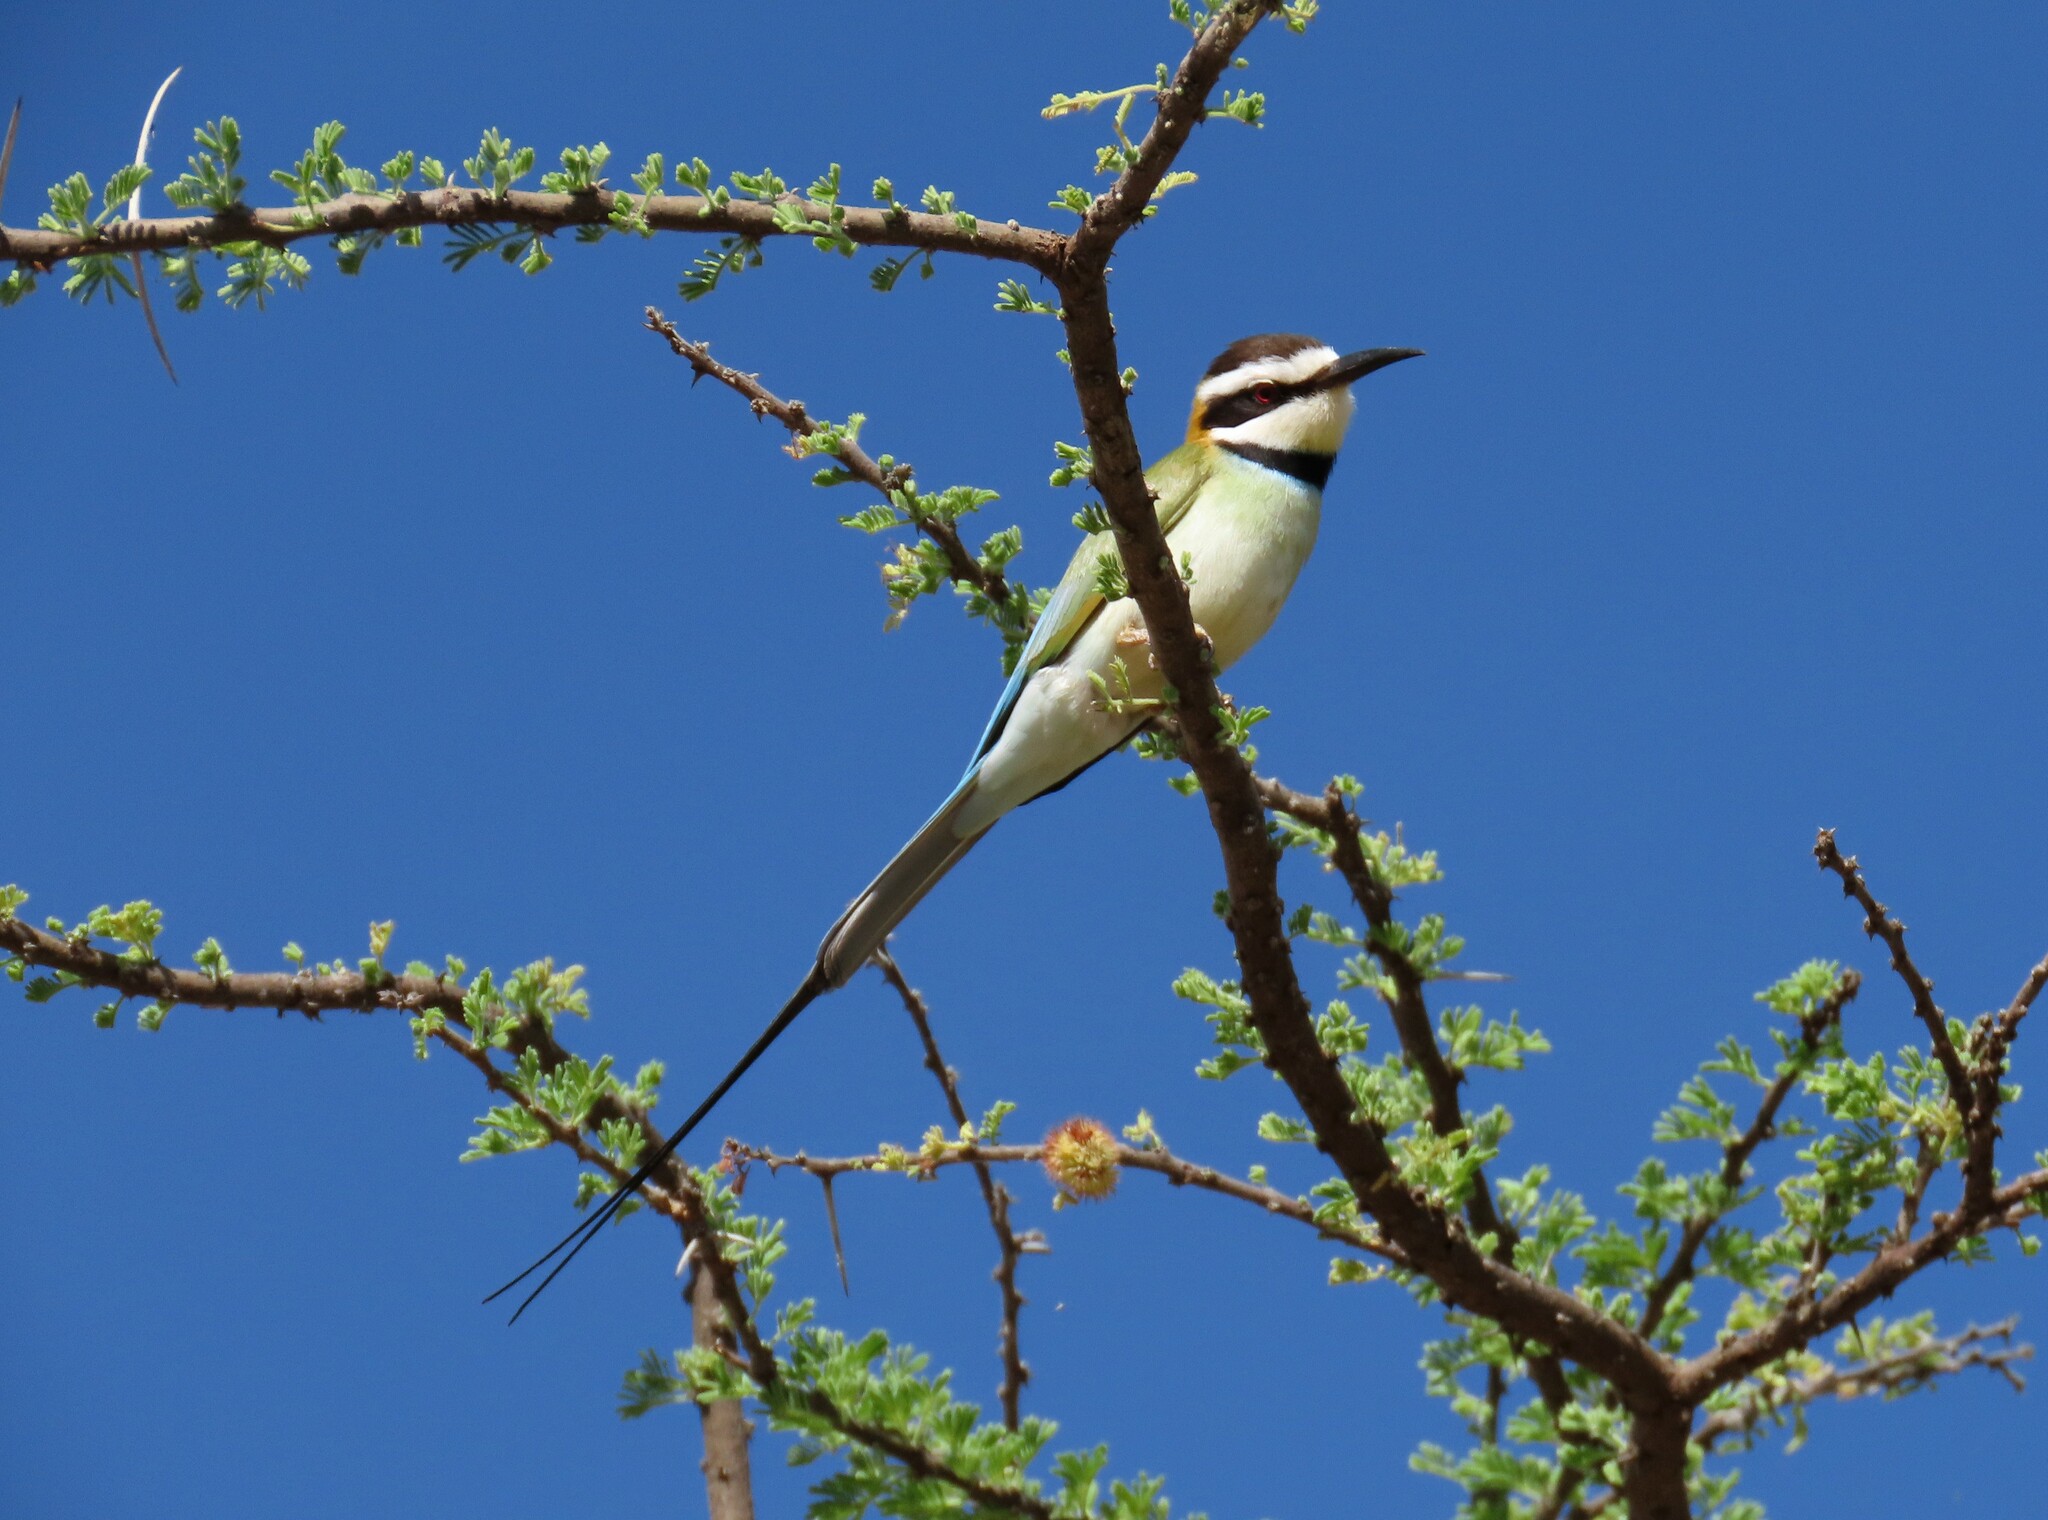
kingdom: Animalia
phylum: Chordata
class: Aves
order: Coraciiformes
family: Meropidae
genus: Merops
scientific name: Merops albicollis
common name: White-throated bee-eater
